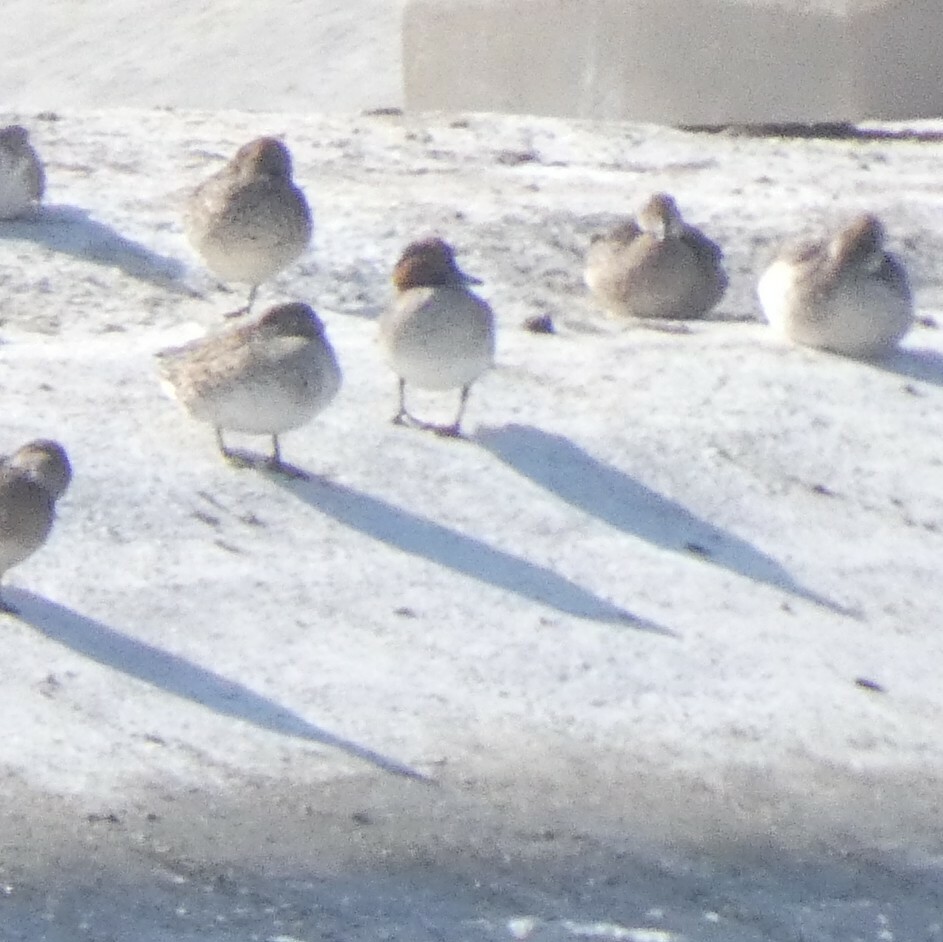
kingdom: Animalia
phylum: Chordata
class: Aves
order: Anseriformes
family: Anatidae
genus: Anas
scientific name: Anas crecca
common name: Eurasian teal
